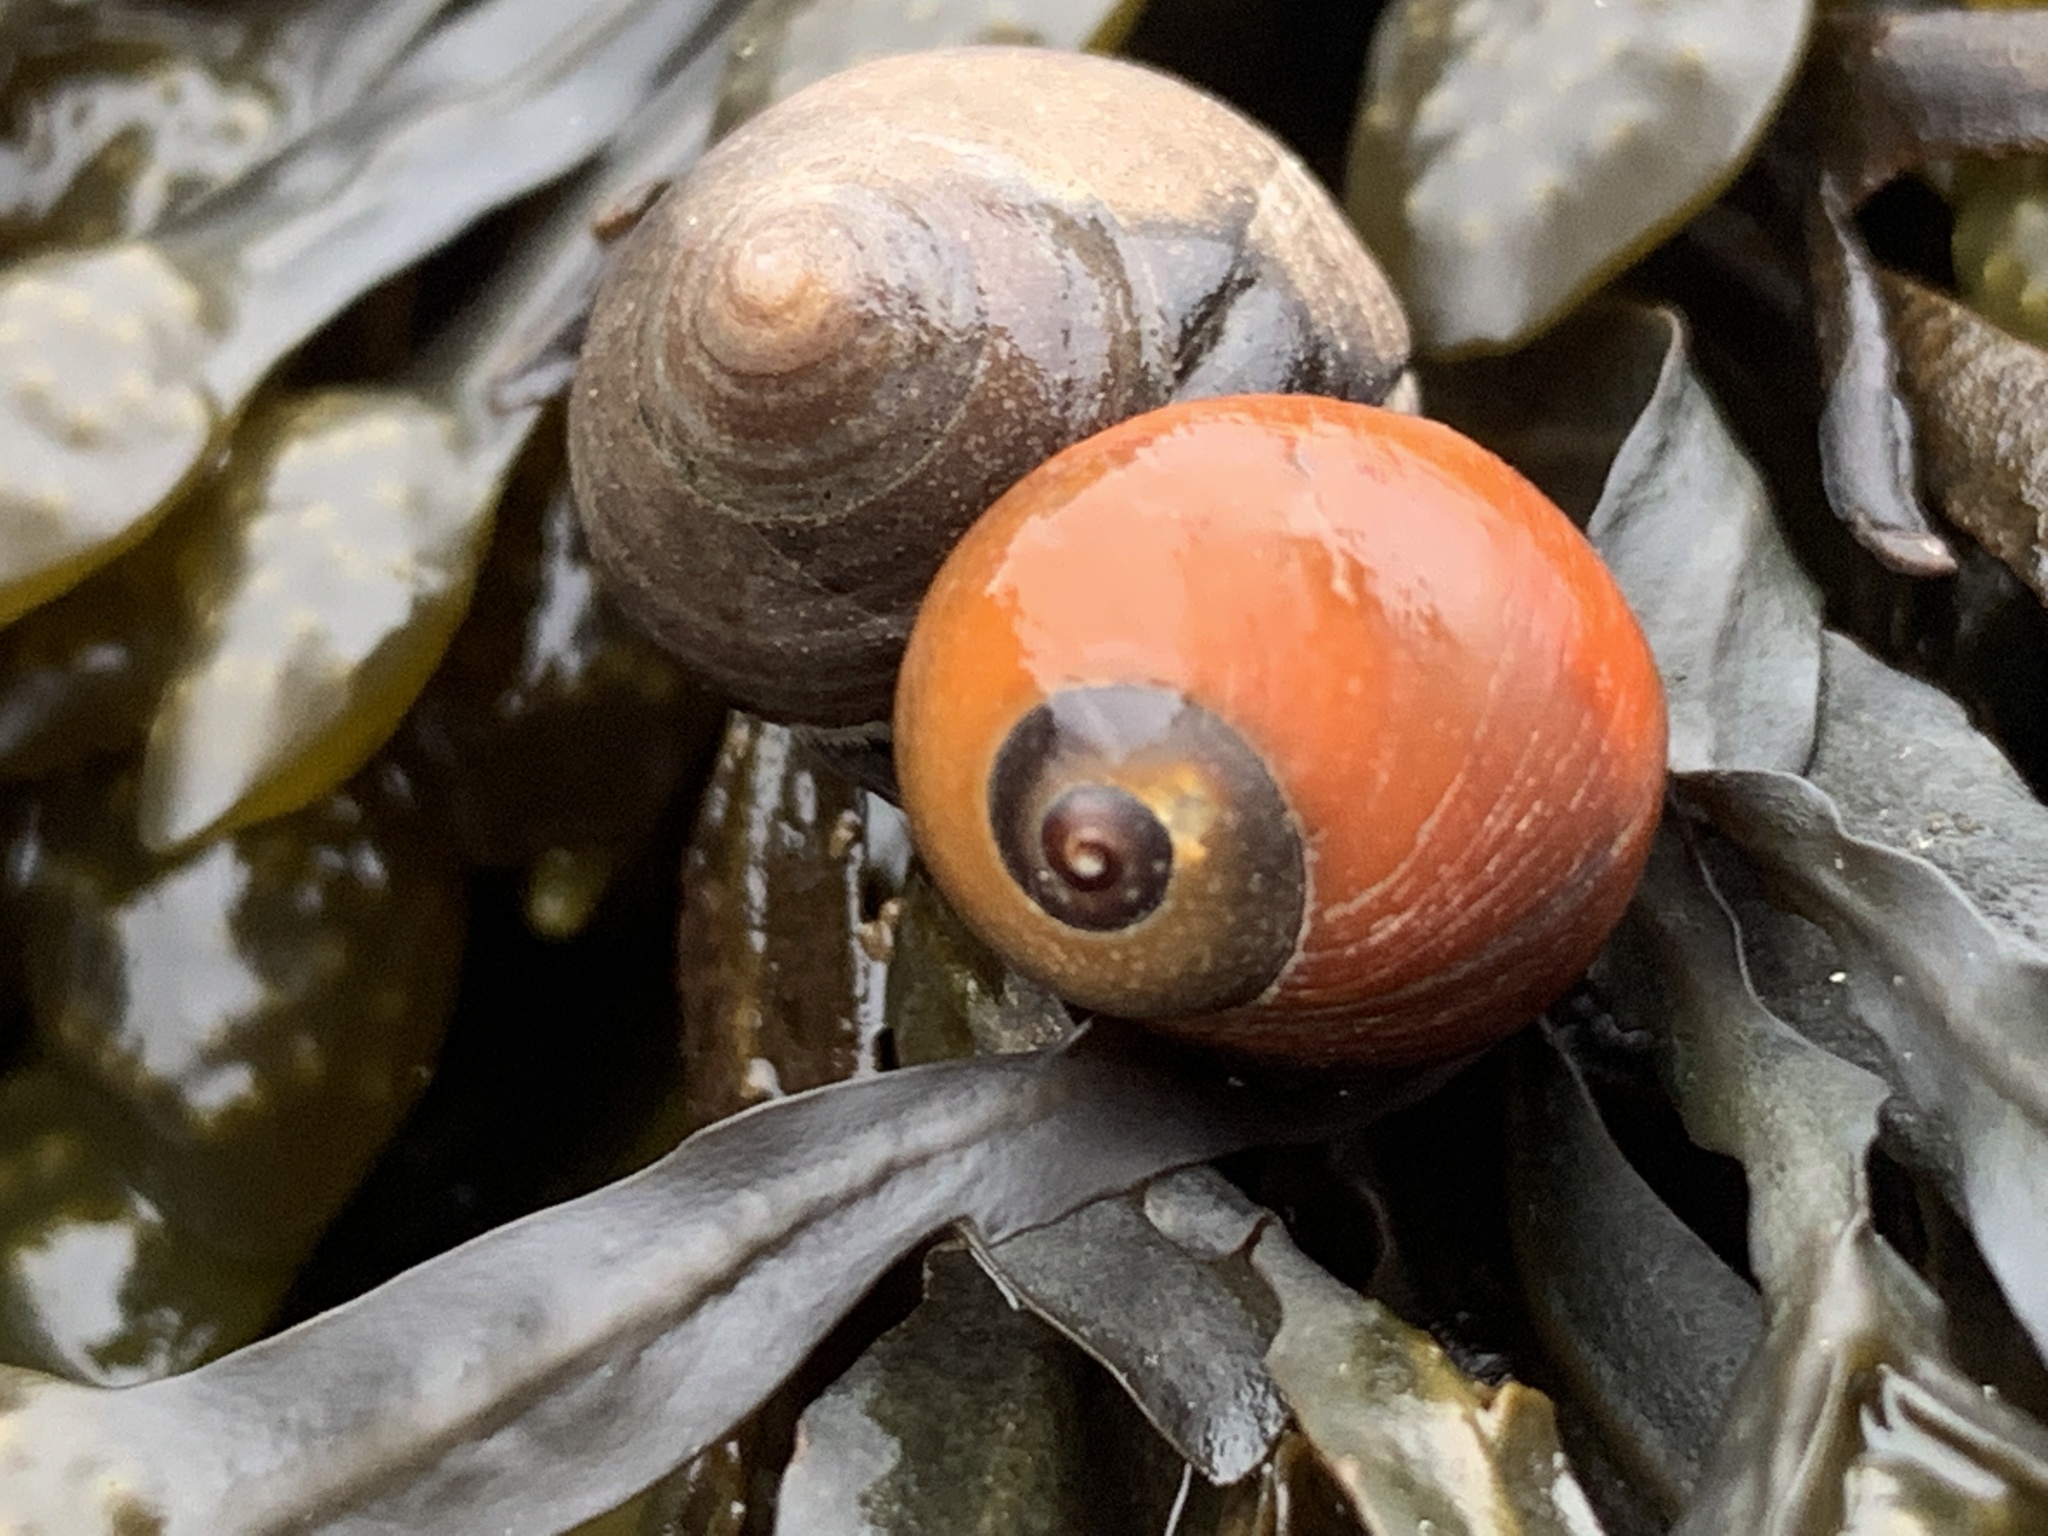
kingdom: Animalia
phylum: Mollusca
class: Gastropoda
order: Littorinimorpha
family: Littorinidae
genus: Littorina
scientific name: Littorina obtusata
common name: Flat periwinkle
